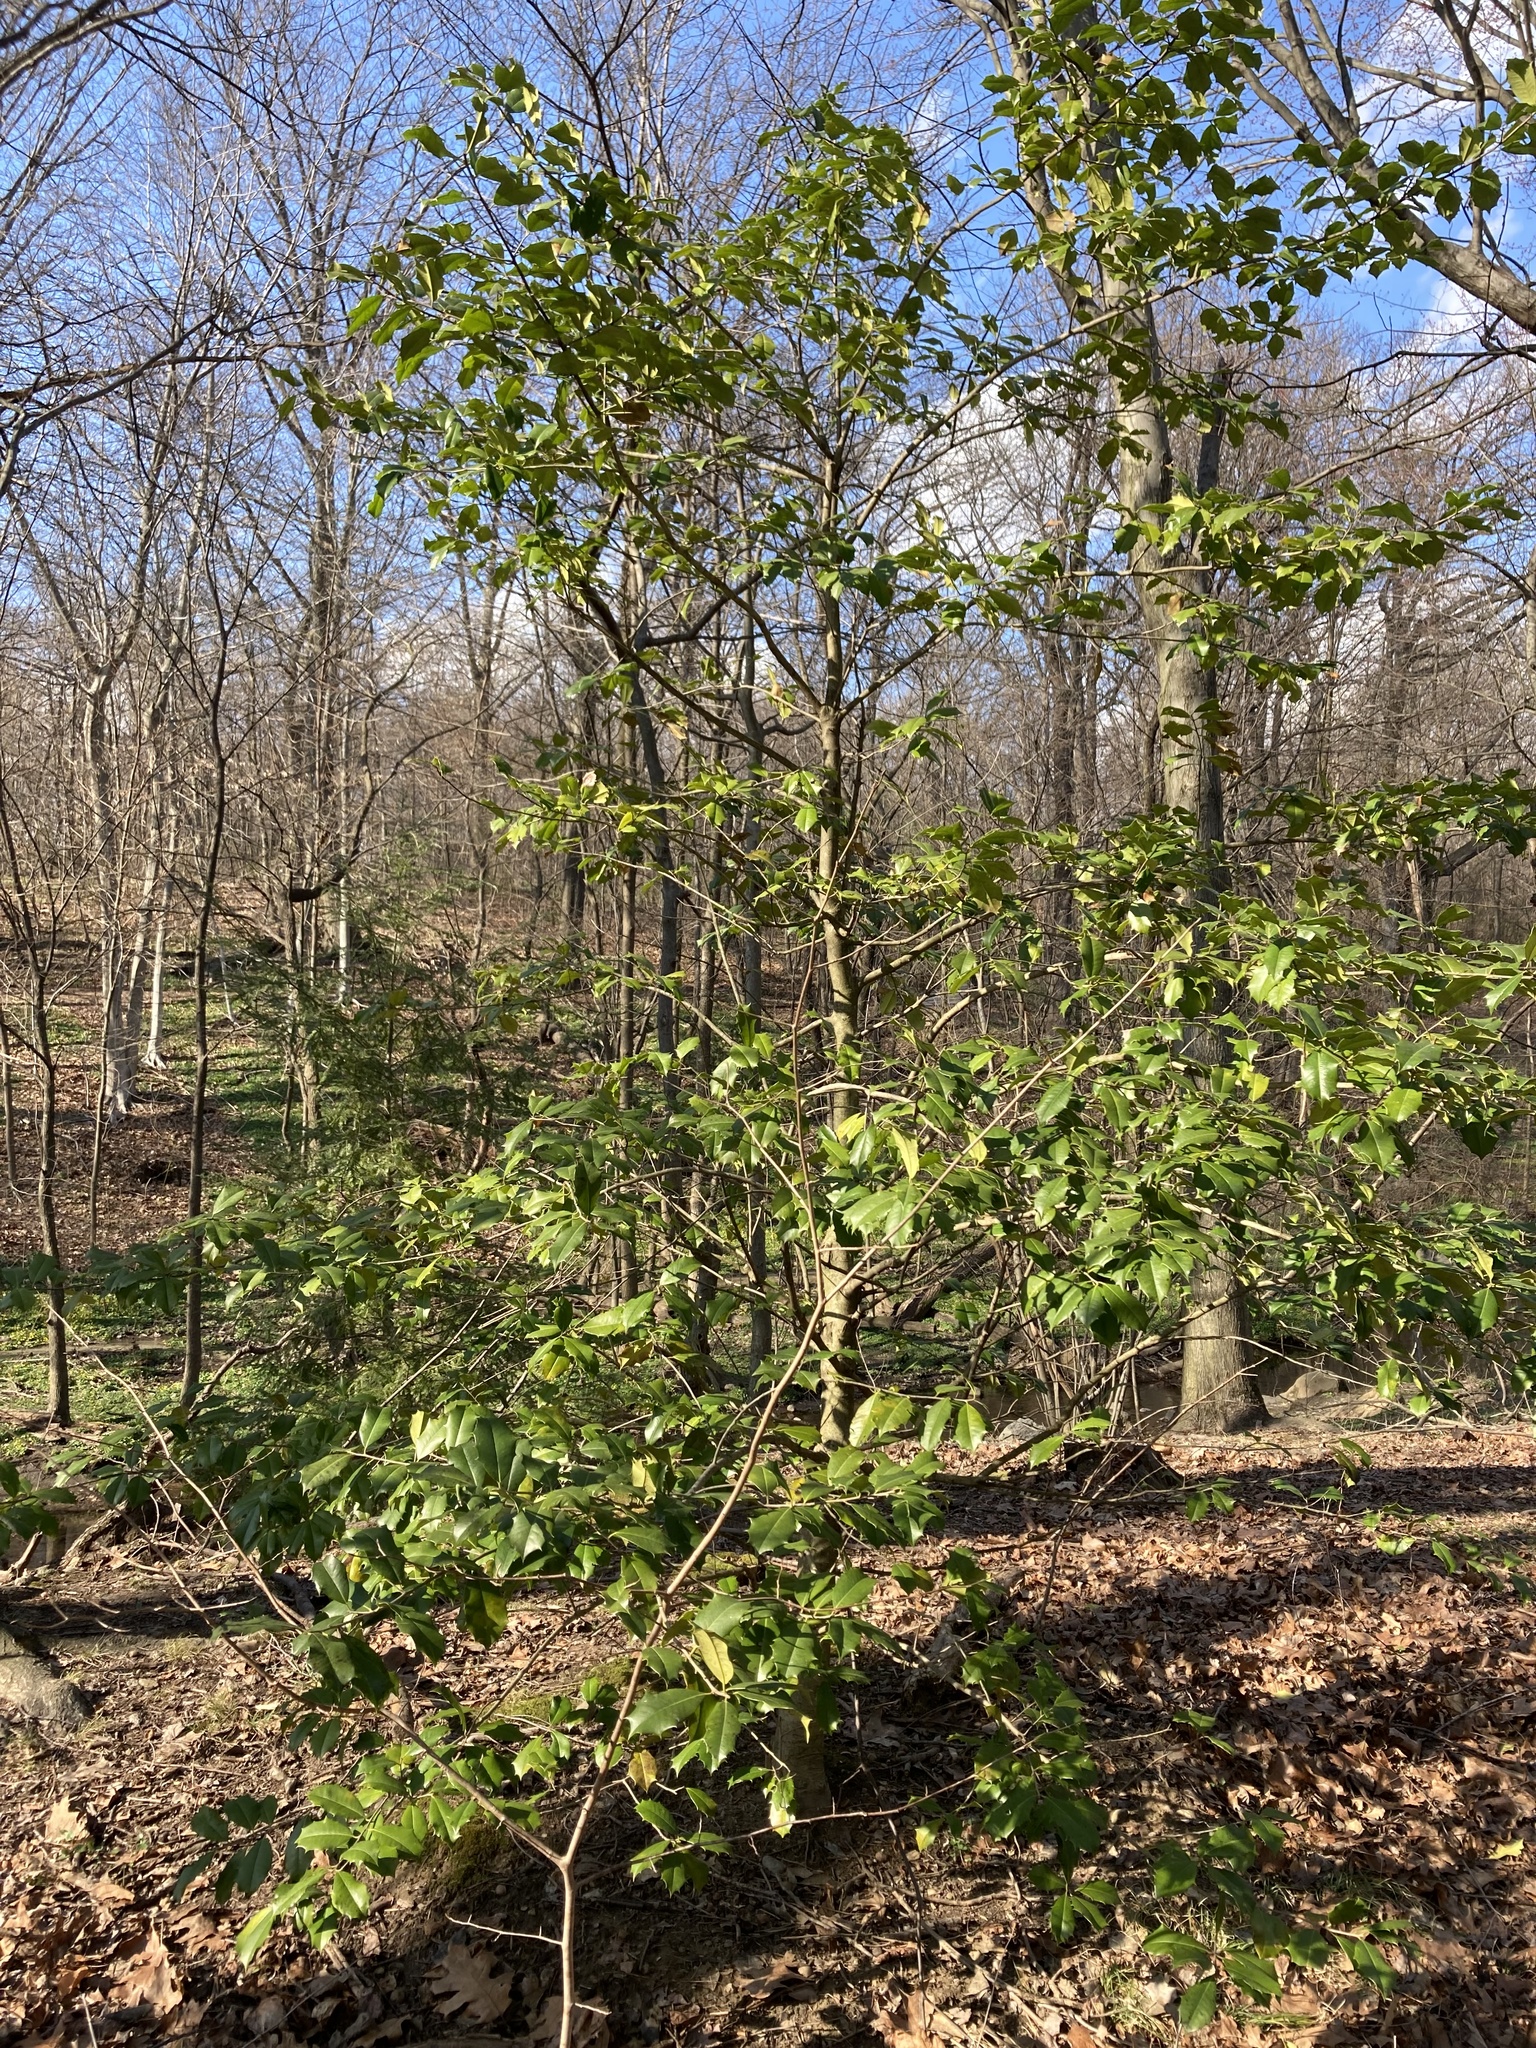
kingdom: Plantae
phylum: Tracheophyta
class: Magnoliopsida
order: Aquifoliales
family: Aquifoliaceae
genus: Ilex
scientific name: Ilex opaca
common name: American holly
